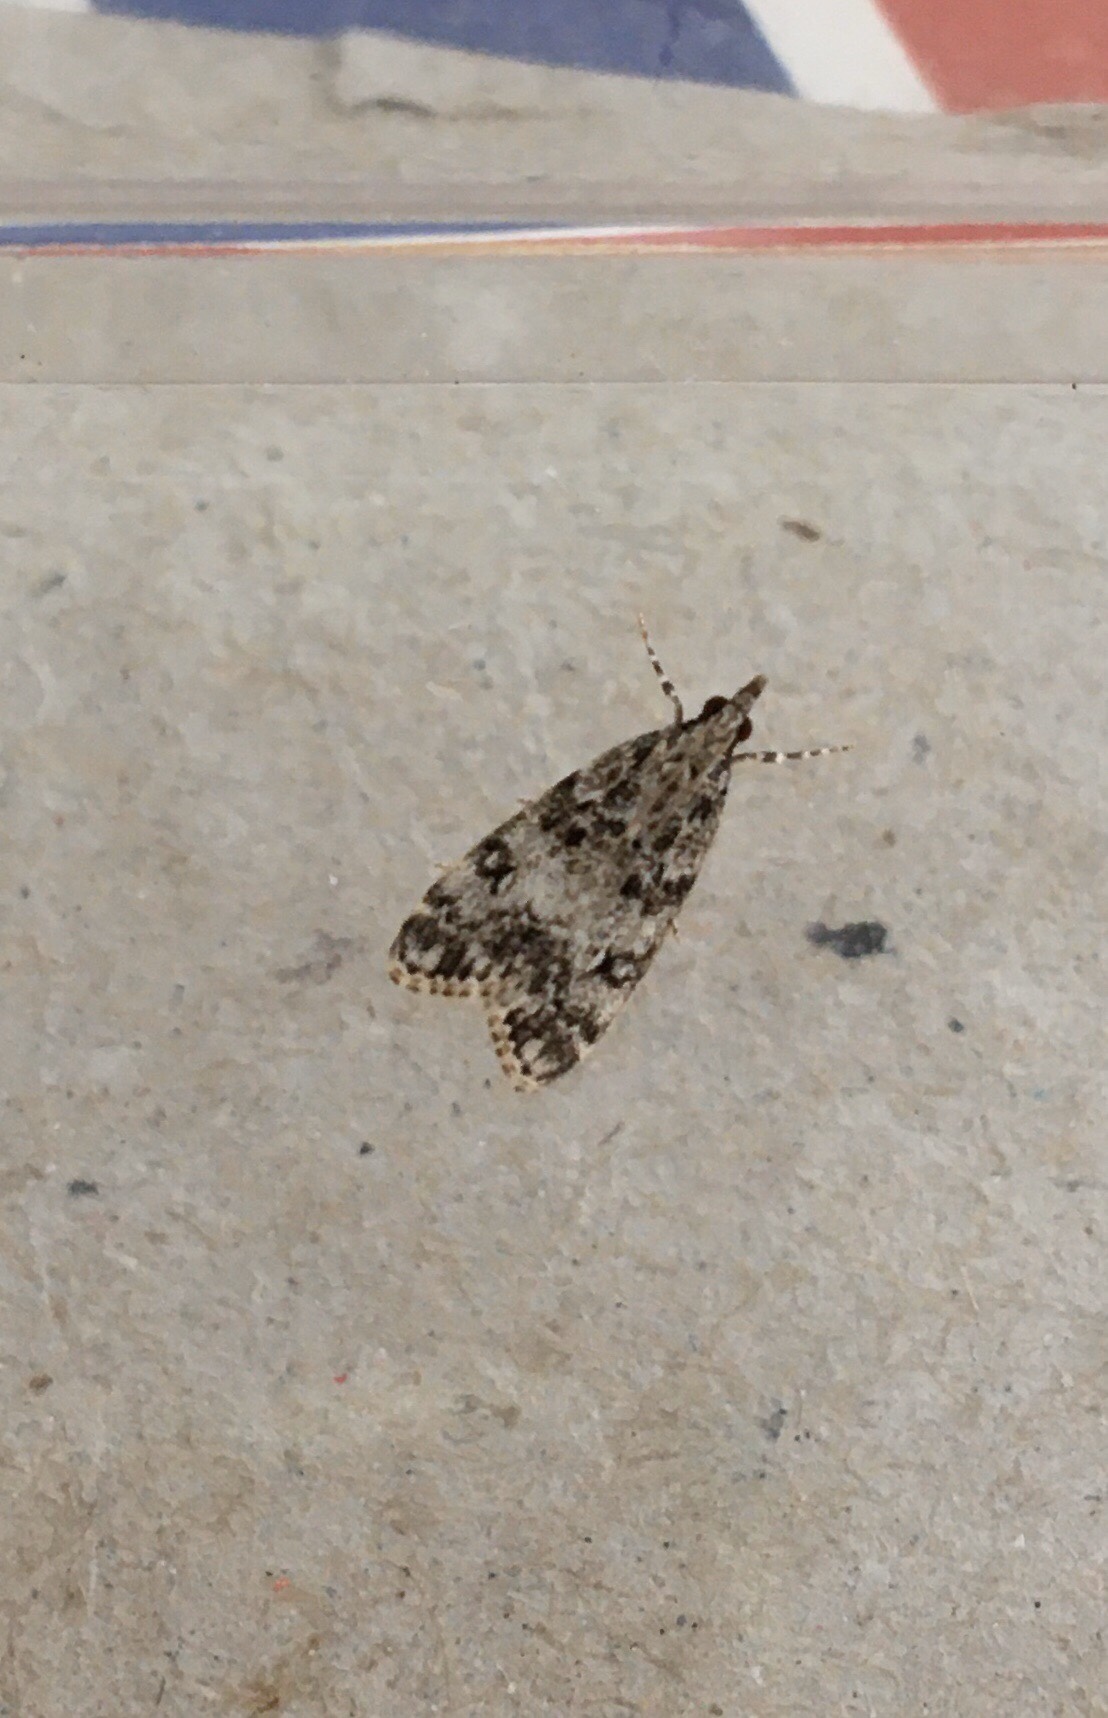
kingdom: Animalia
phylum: Arthropoda
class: Insecta
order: Lepidoptera
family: Crambidae
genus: Eudonia
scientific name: Eudonia lacustrata
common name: Little grey
